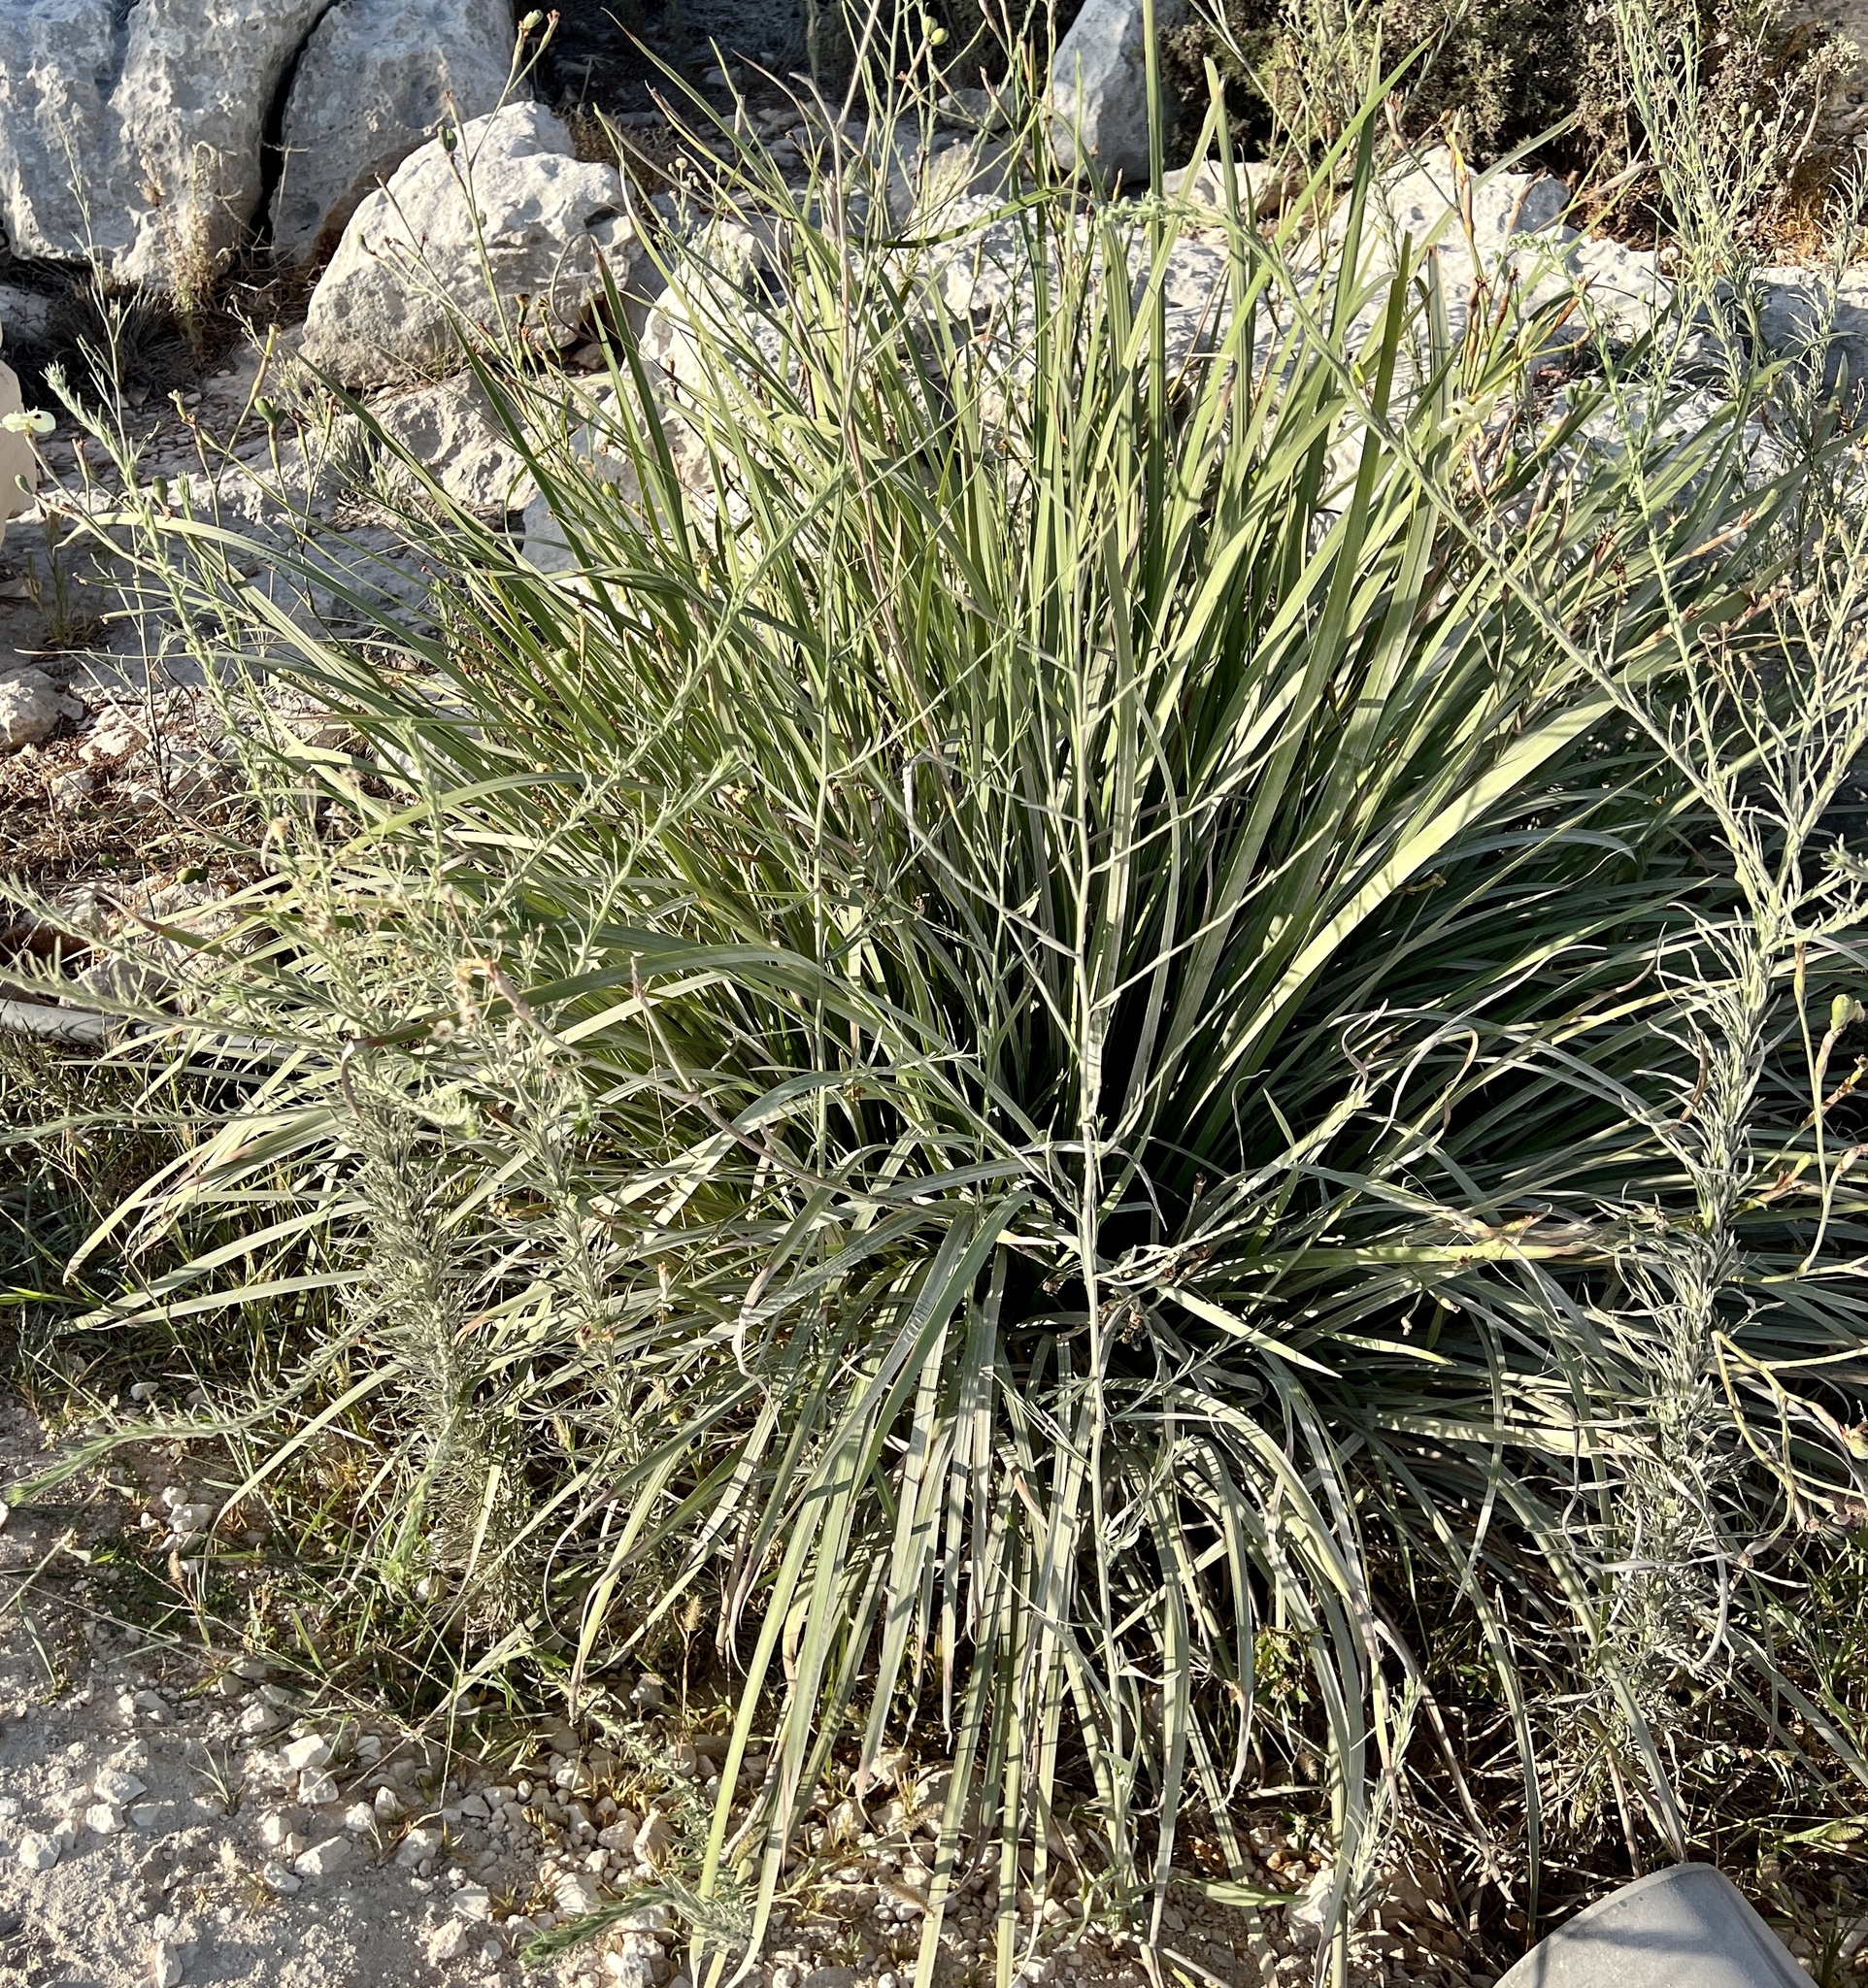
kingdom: Plantae
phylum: Tracheophyta
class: Liliopsida
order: Asparagales
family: Iridaceae
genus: Dietes
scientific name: Dietes bicolor
